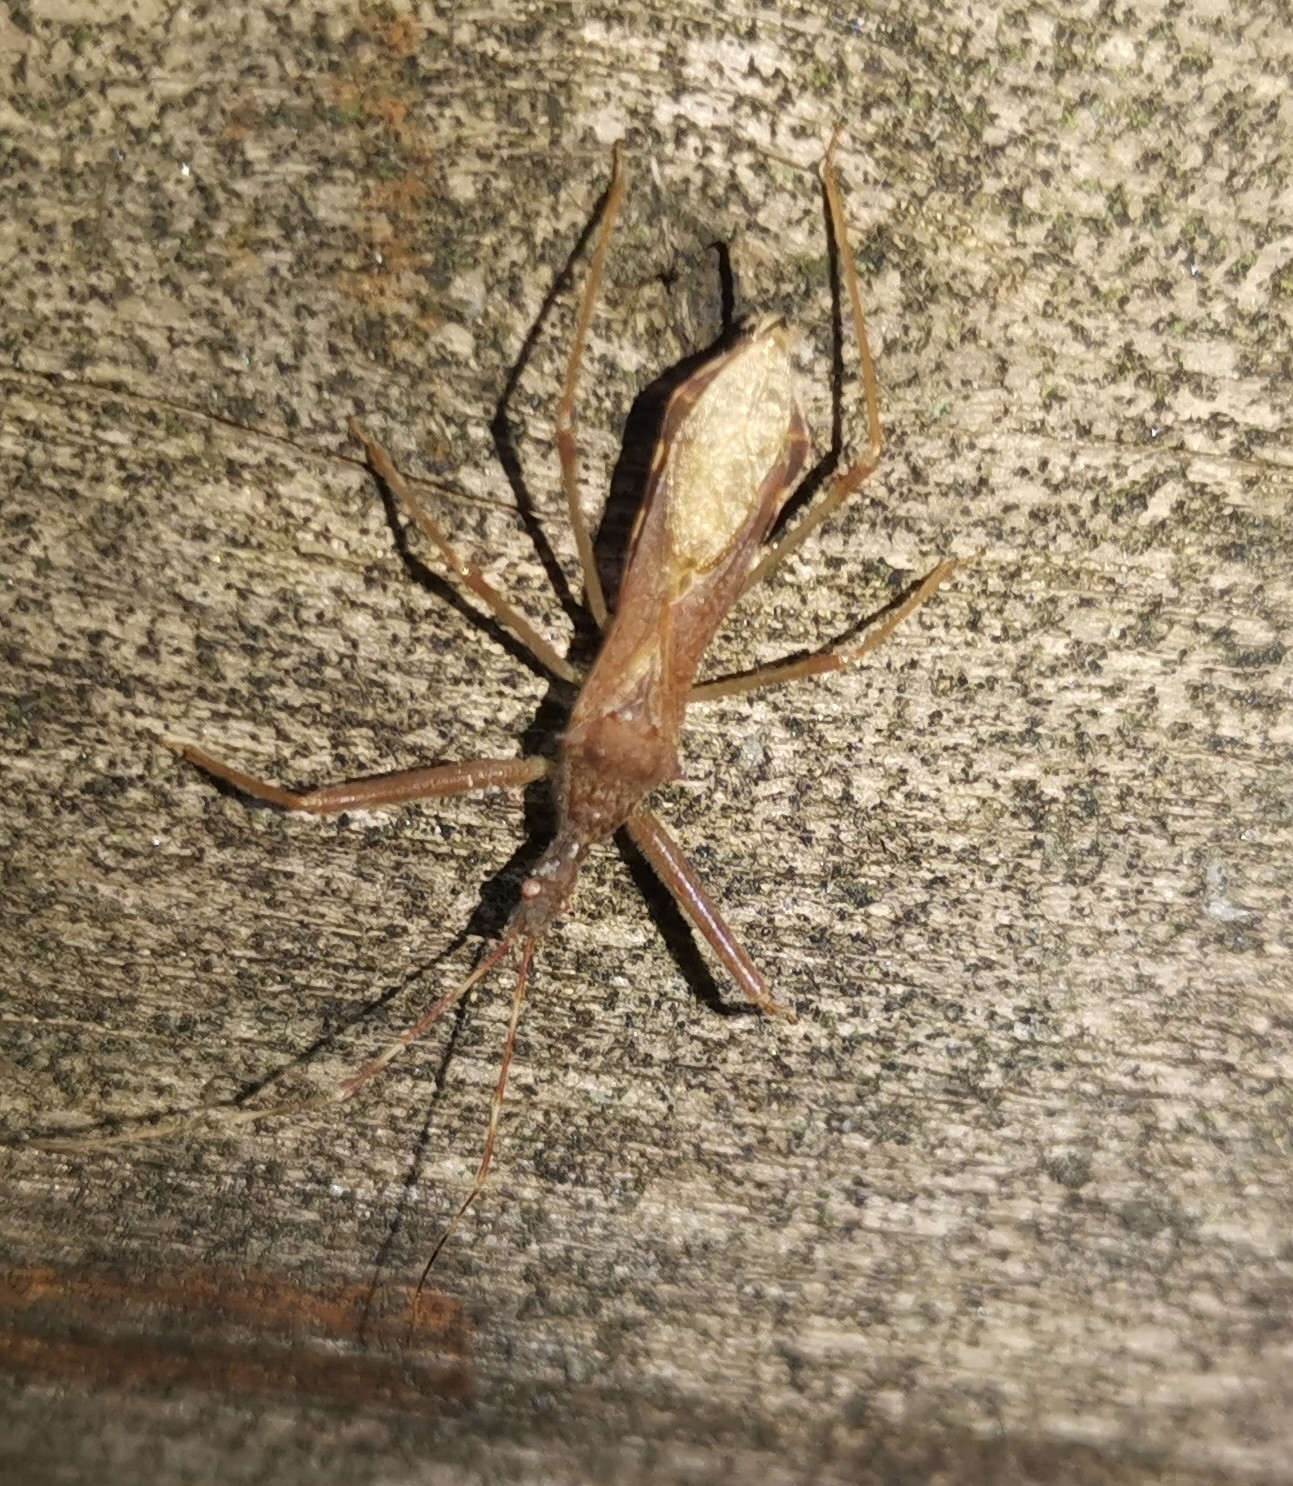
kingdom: Animalia
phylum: Arthropoda
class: Insecta
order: Hemiptera
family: Reduviidae
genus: Nagusta
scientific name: Nagusta goedelii
